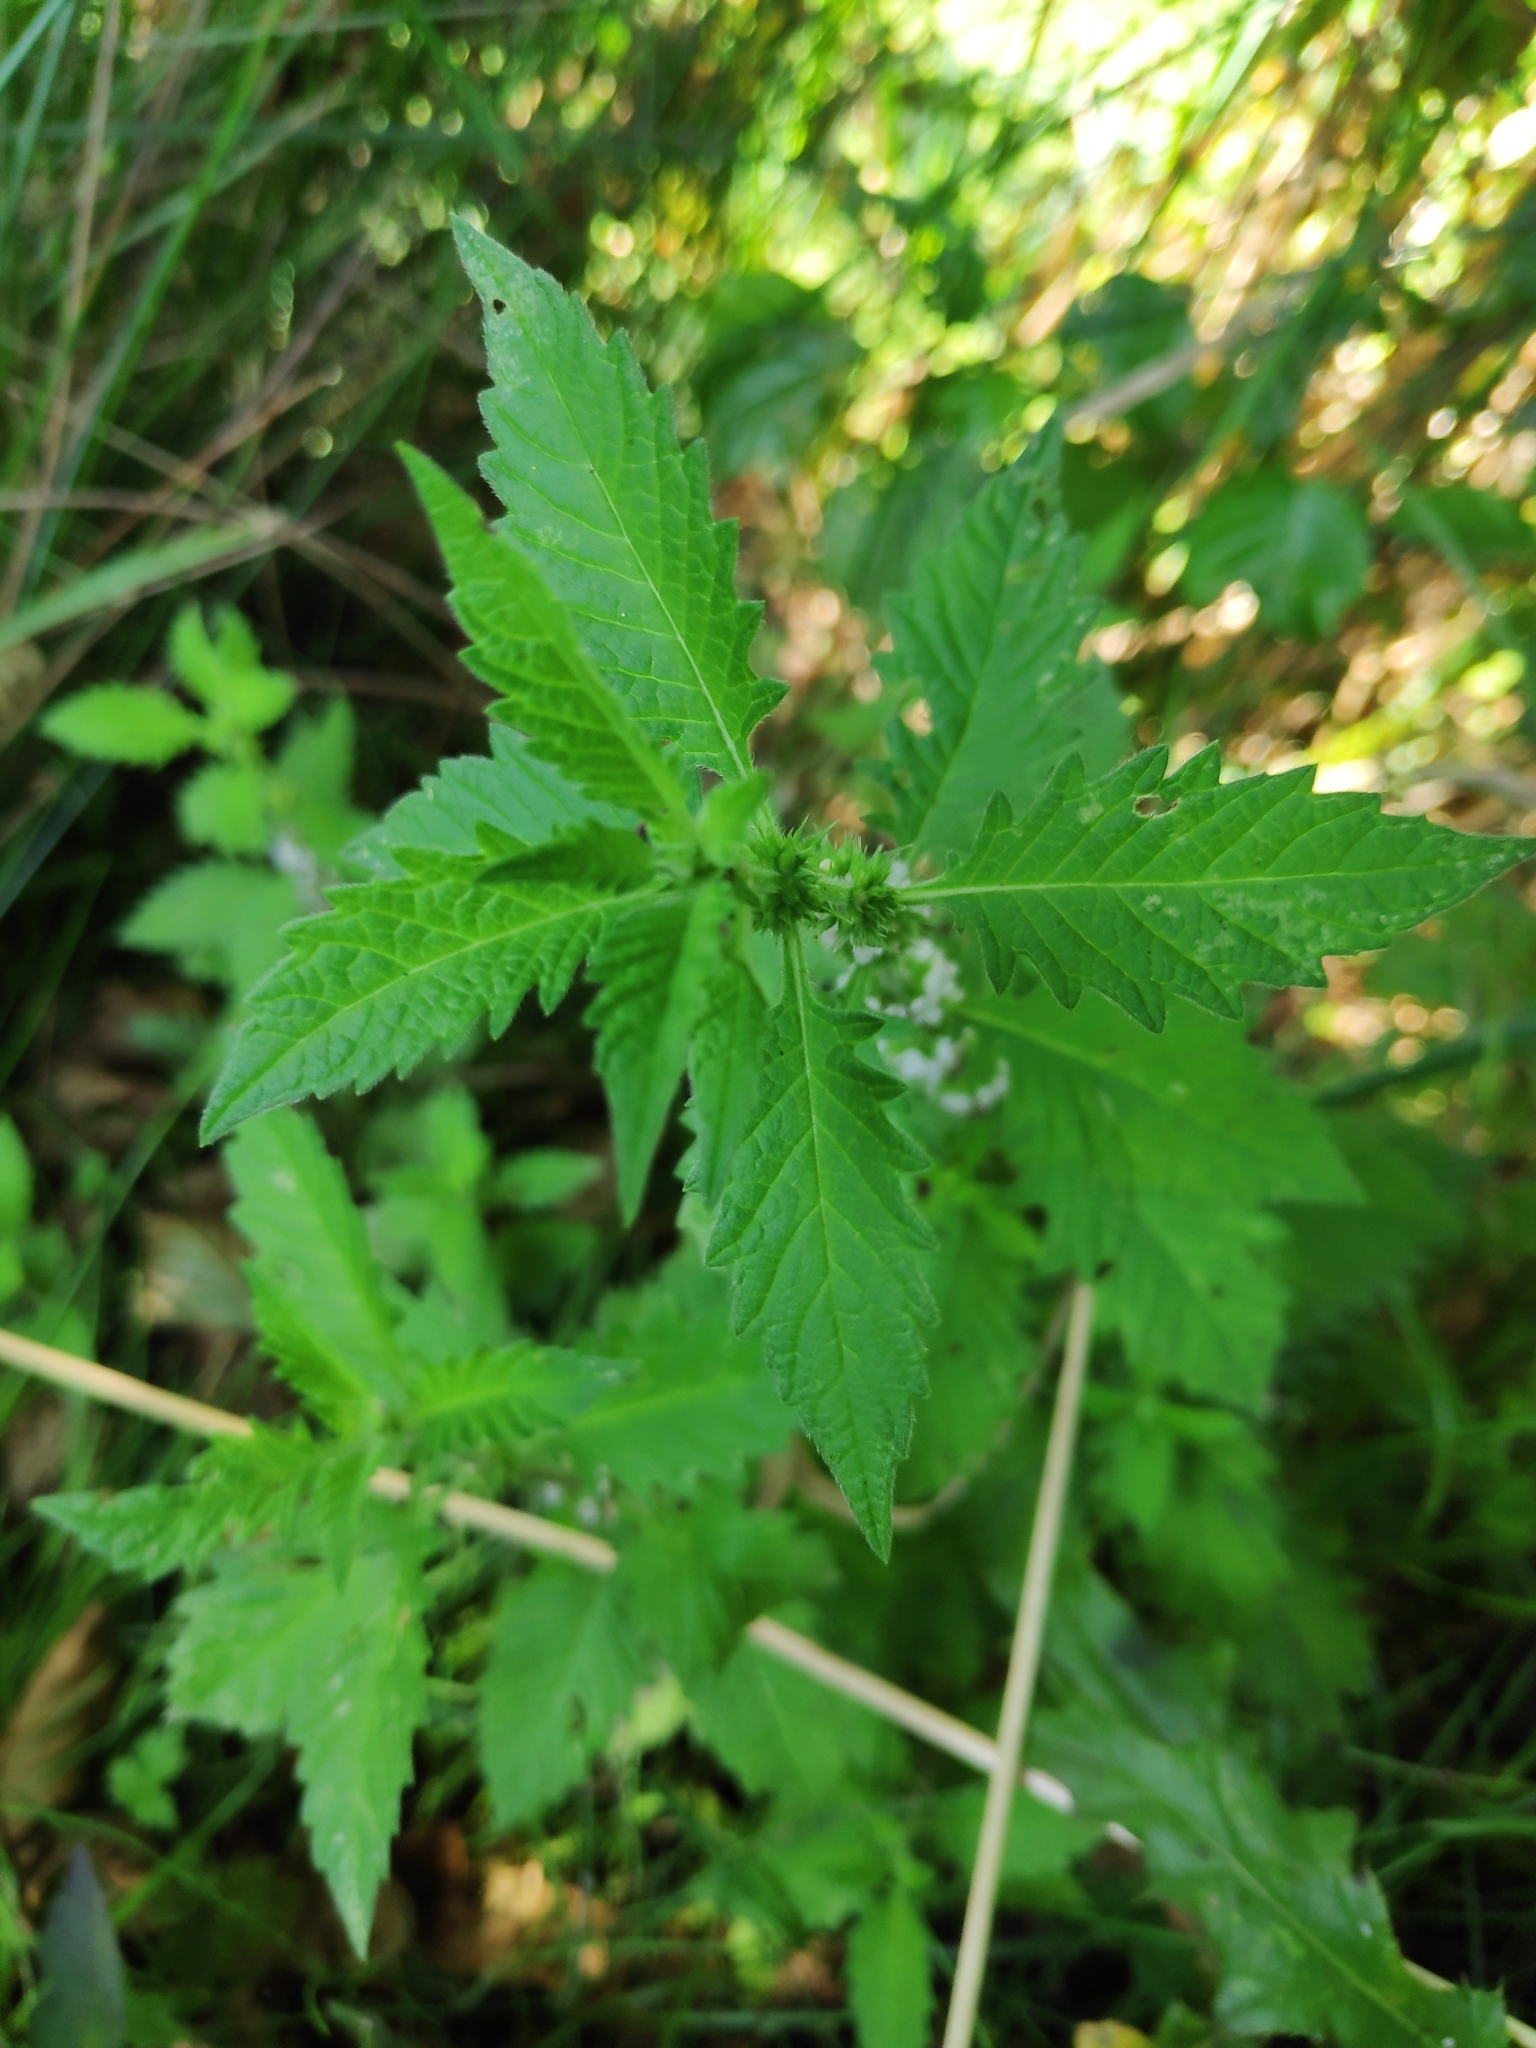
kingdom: Plantae
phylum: Tracheophyta
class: Magnoliopsida
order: Lamiales
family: Lamiaceae
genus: Lycopus
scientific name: Lycopus europaeus
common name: European bugleweed
